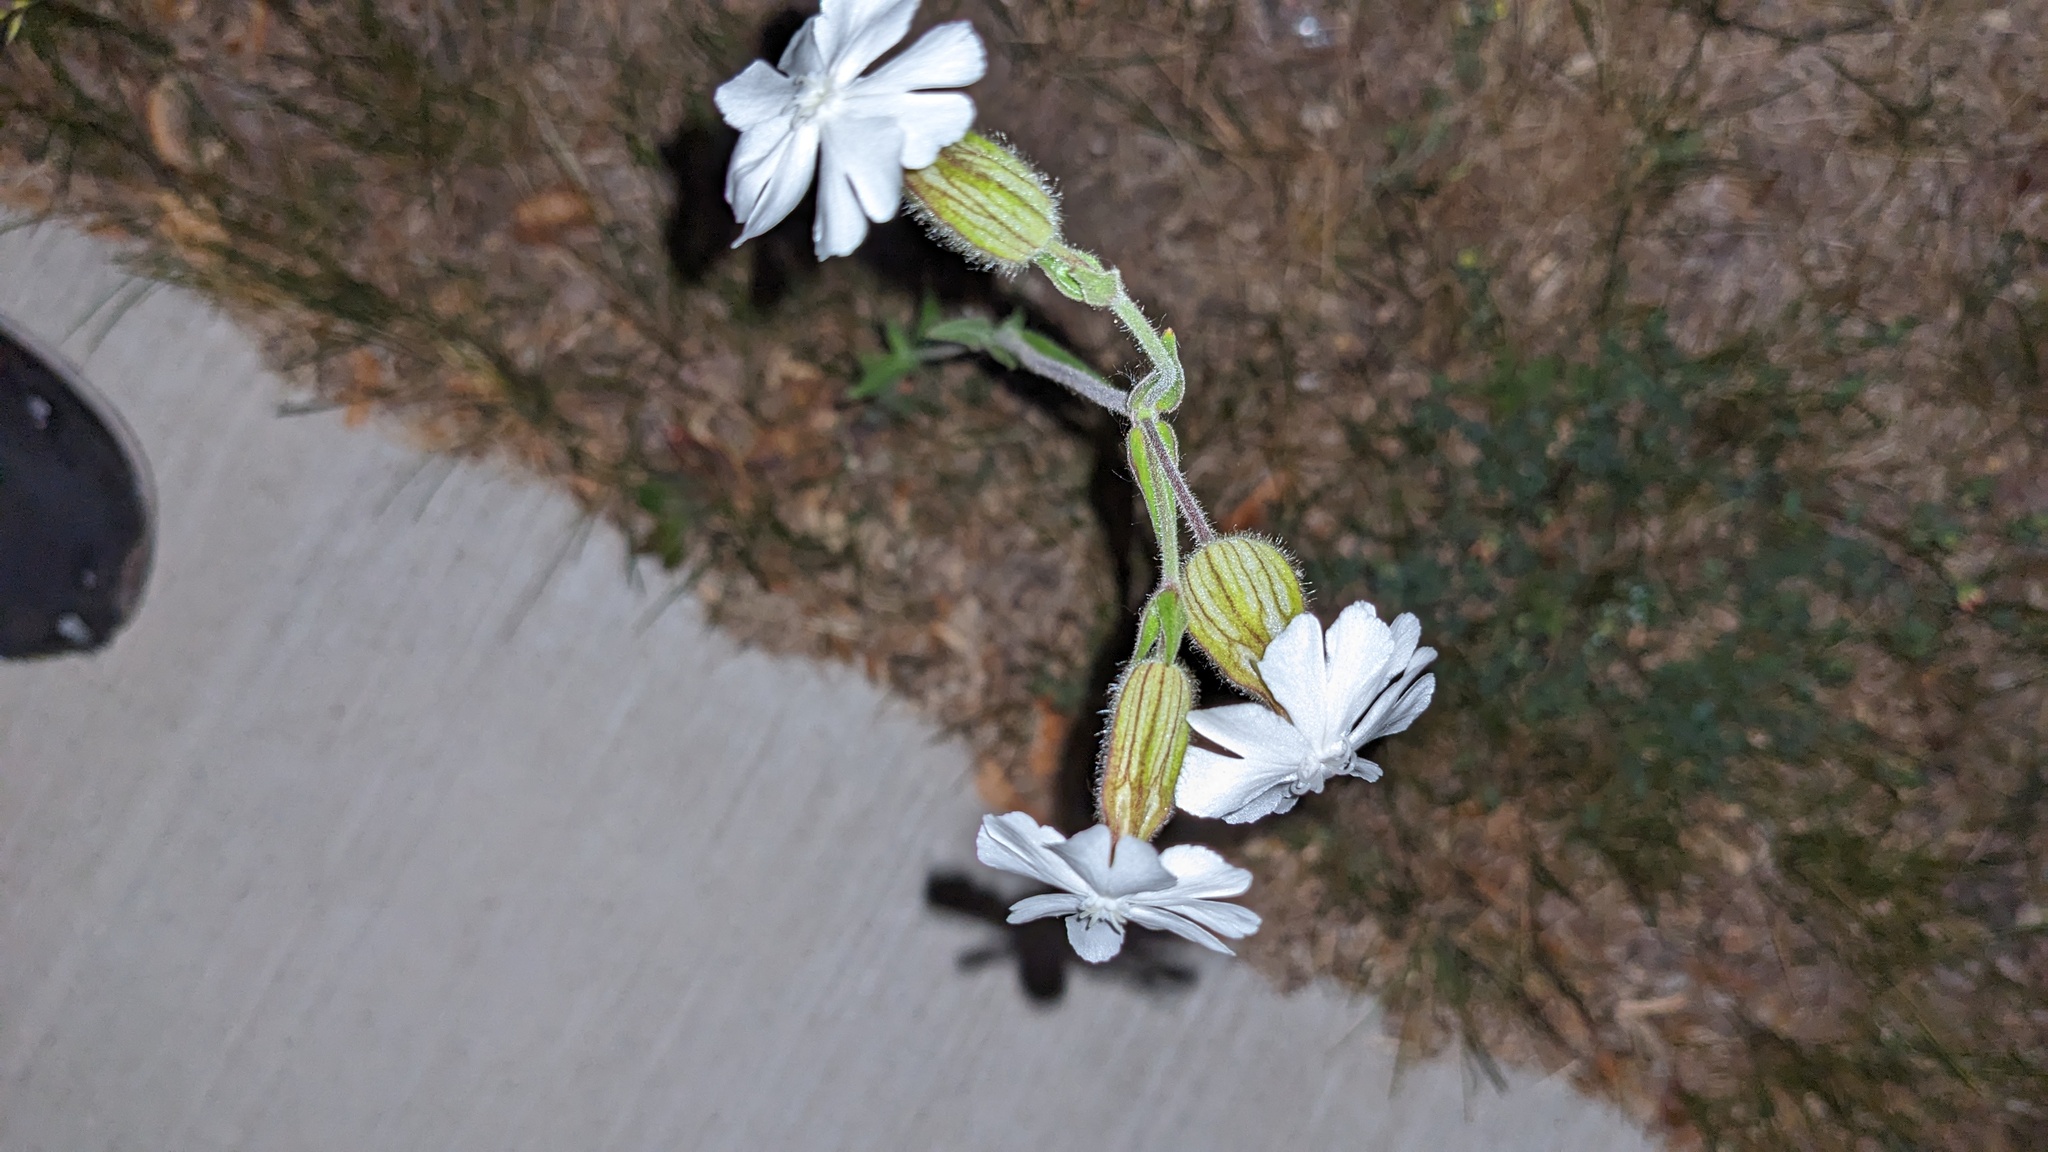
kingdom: Plantae
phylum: Tracheophyta
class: Magnoliopsida
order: Caryophyllales
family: Caryophyllaceae
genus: Silene
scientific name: Silene latifolia
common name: White campion
